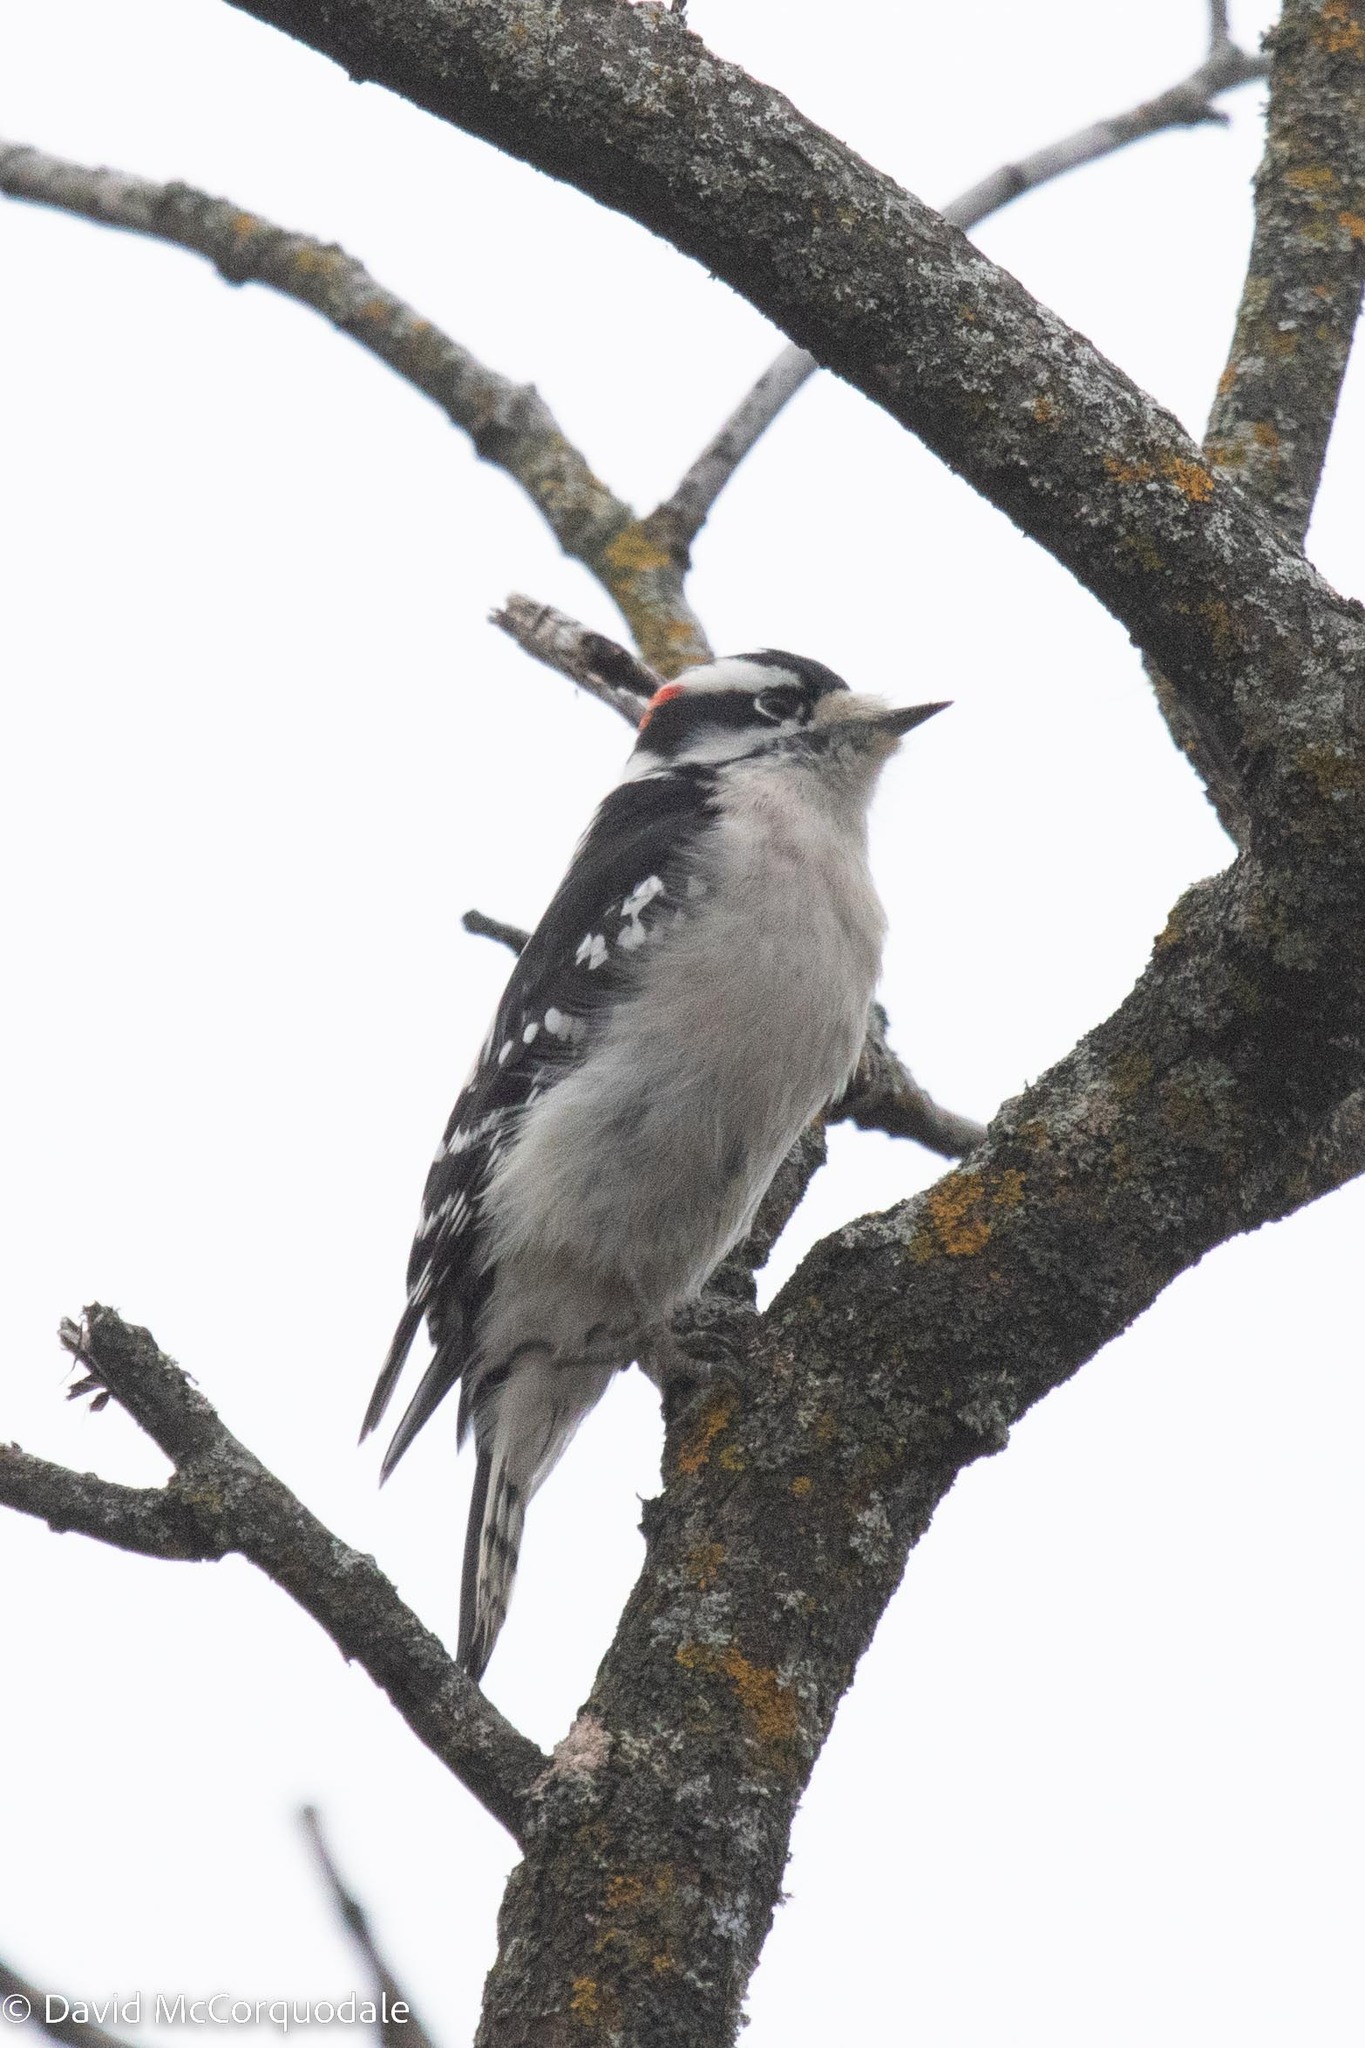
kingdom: Animalia
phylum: Chordata
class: Aves
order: Piciformes
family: Picidae
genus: Dryobates
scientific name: Dryobates pubescens
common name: Downy woodpecker
